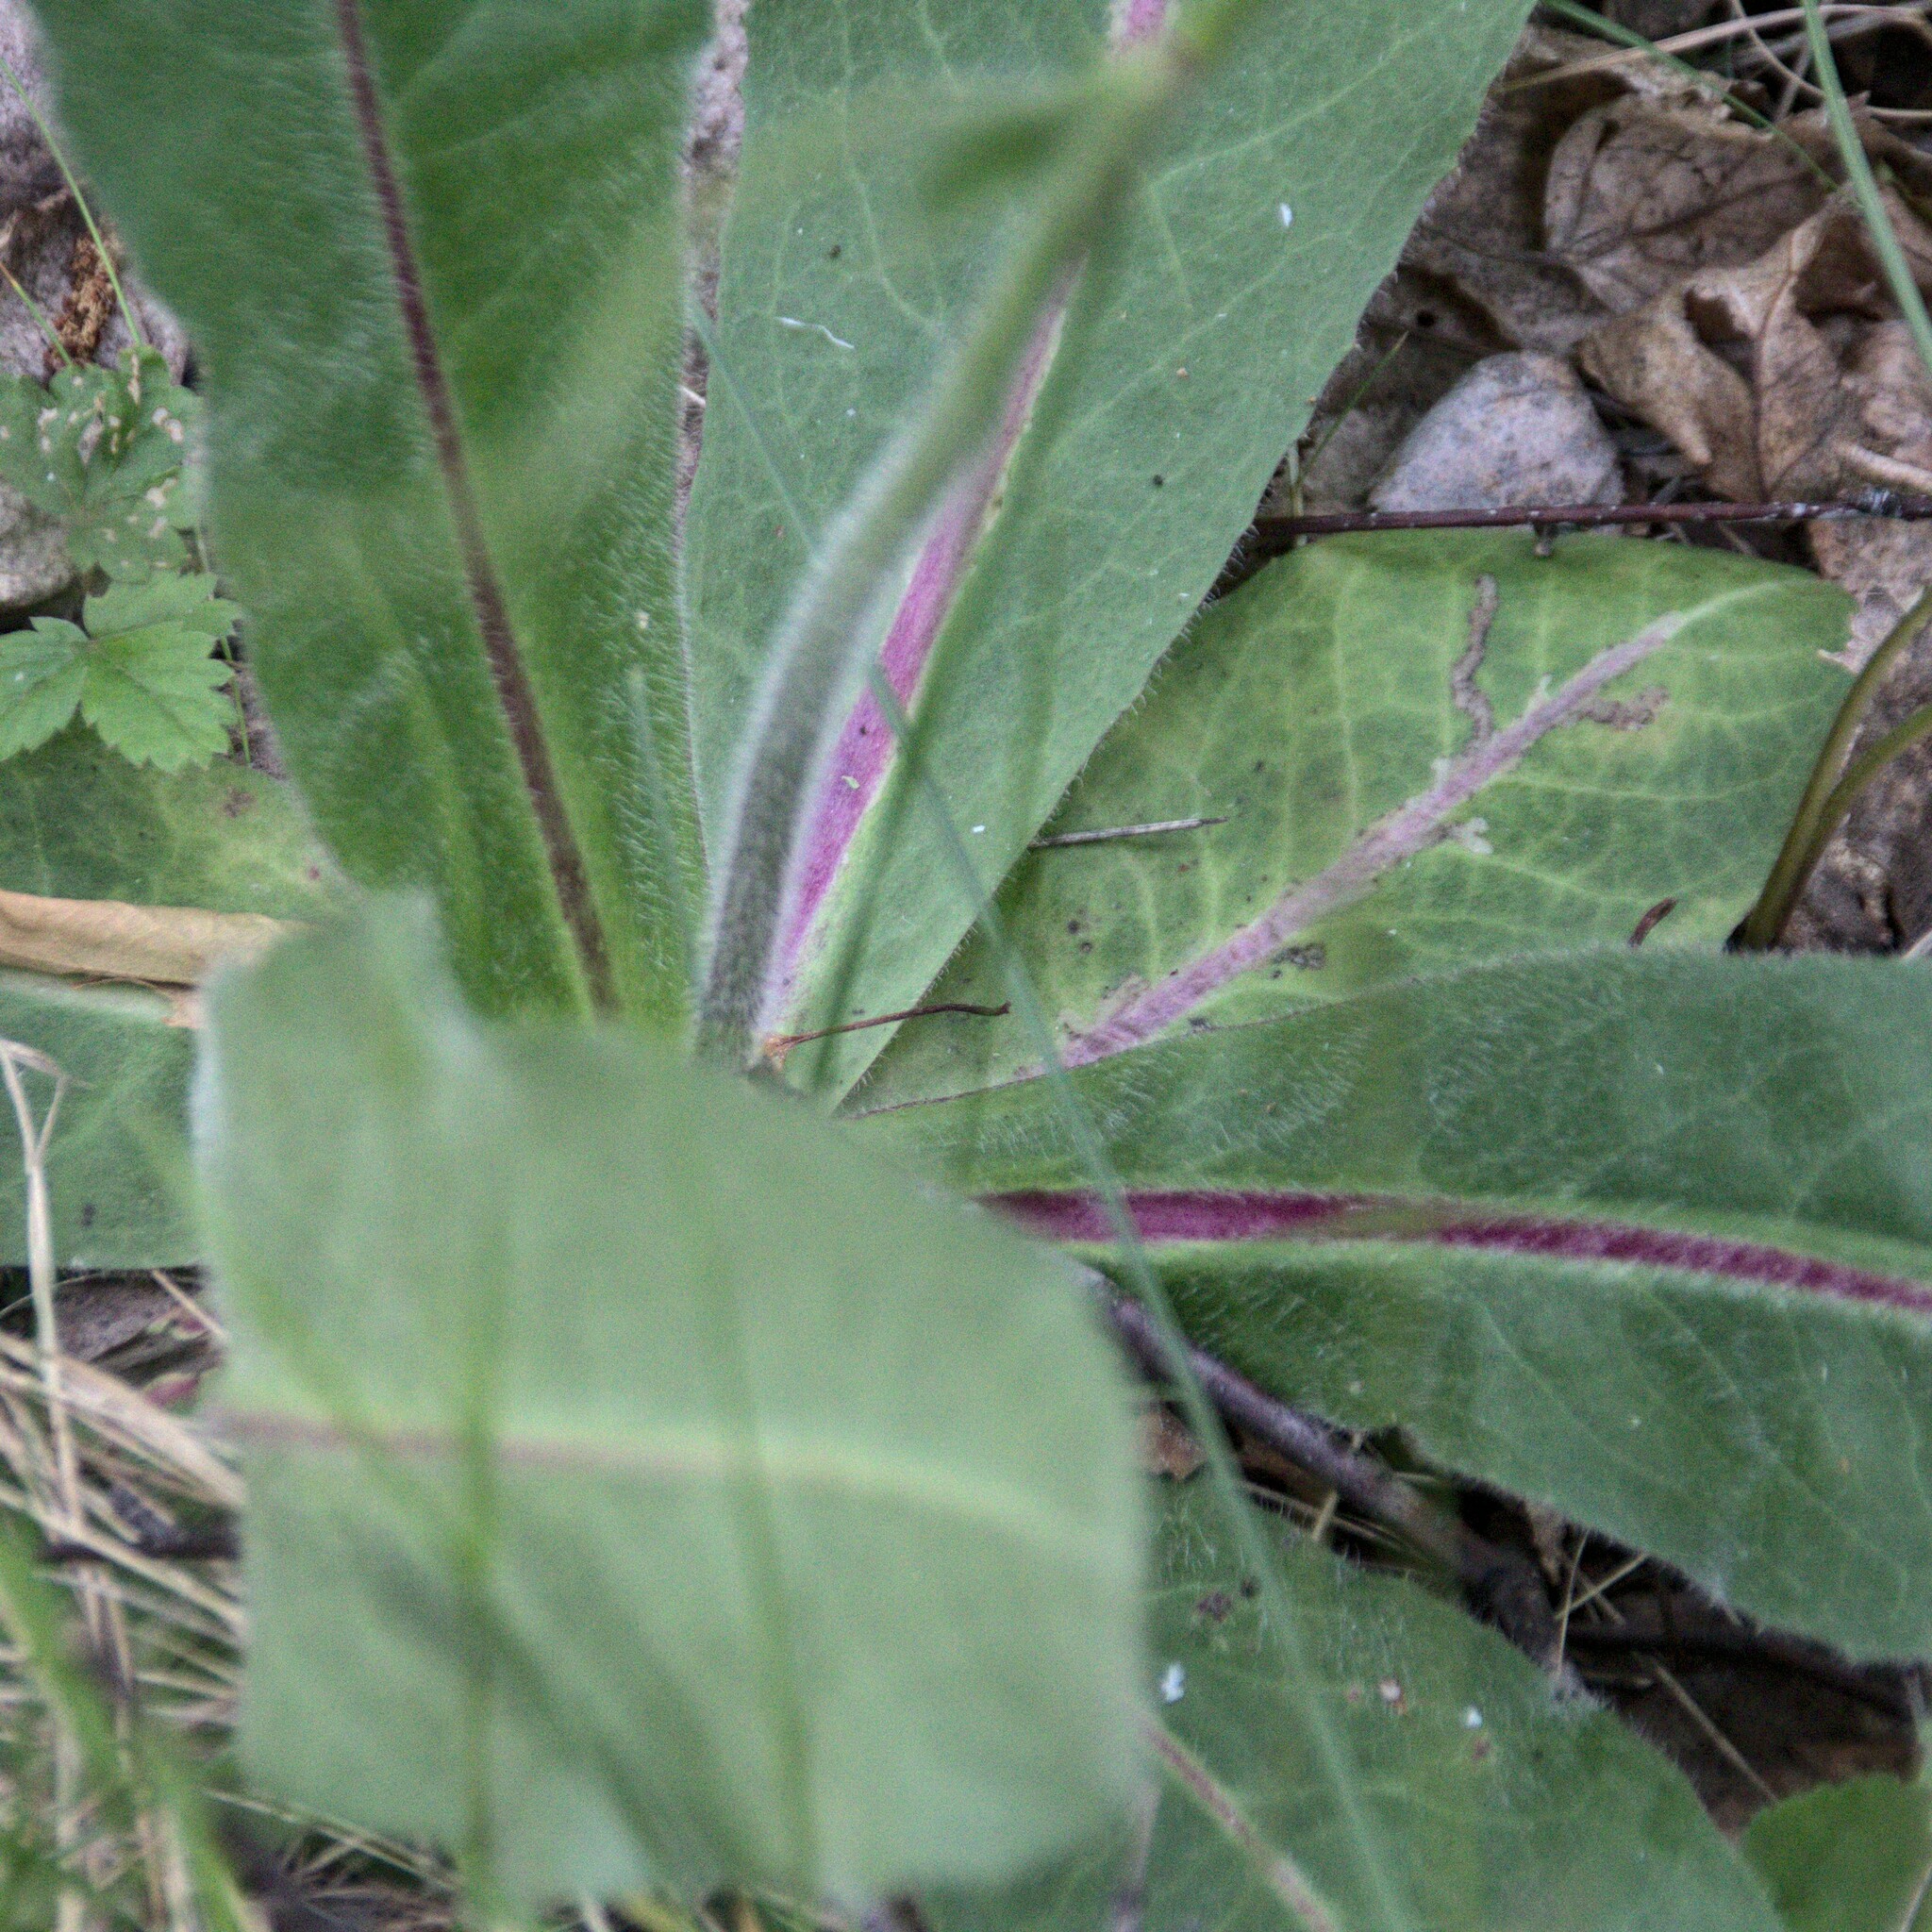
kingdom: Plantae
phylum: Tracheophyta
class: Magnoliopsida
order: Asterales
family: Asteraceae
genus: Trommsdorffia
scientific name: Trommsdorffia maculata
